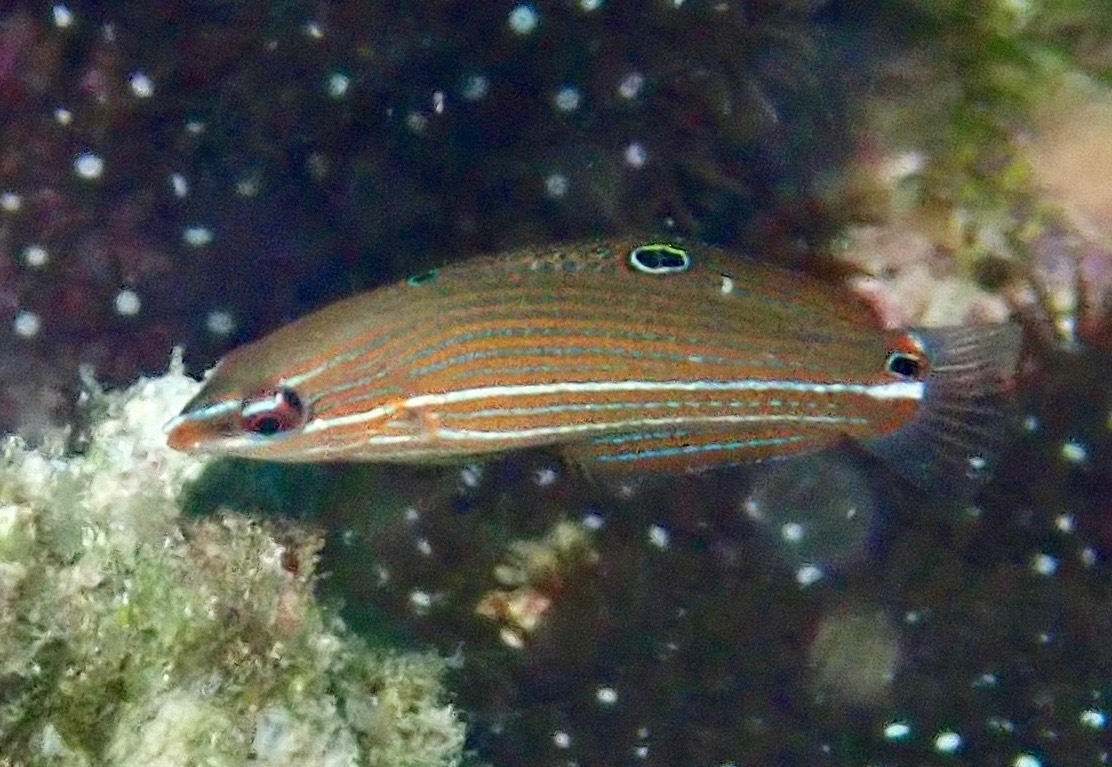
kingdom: Animalia
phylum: Chordata
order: Perciformes
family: Labridae
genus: Halichoeres
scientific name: Halichoeres melanurus
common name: Hoeven's wrasse
